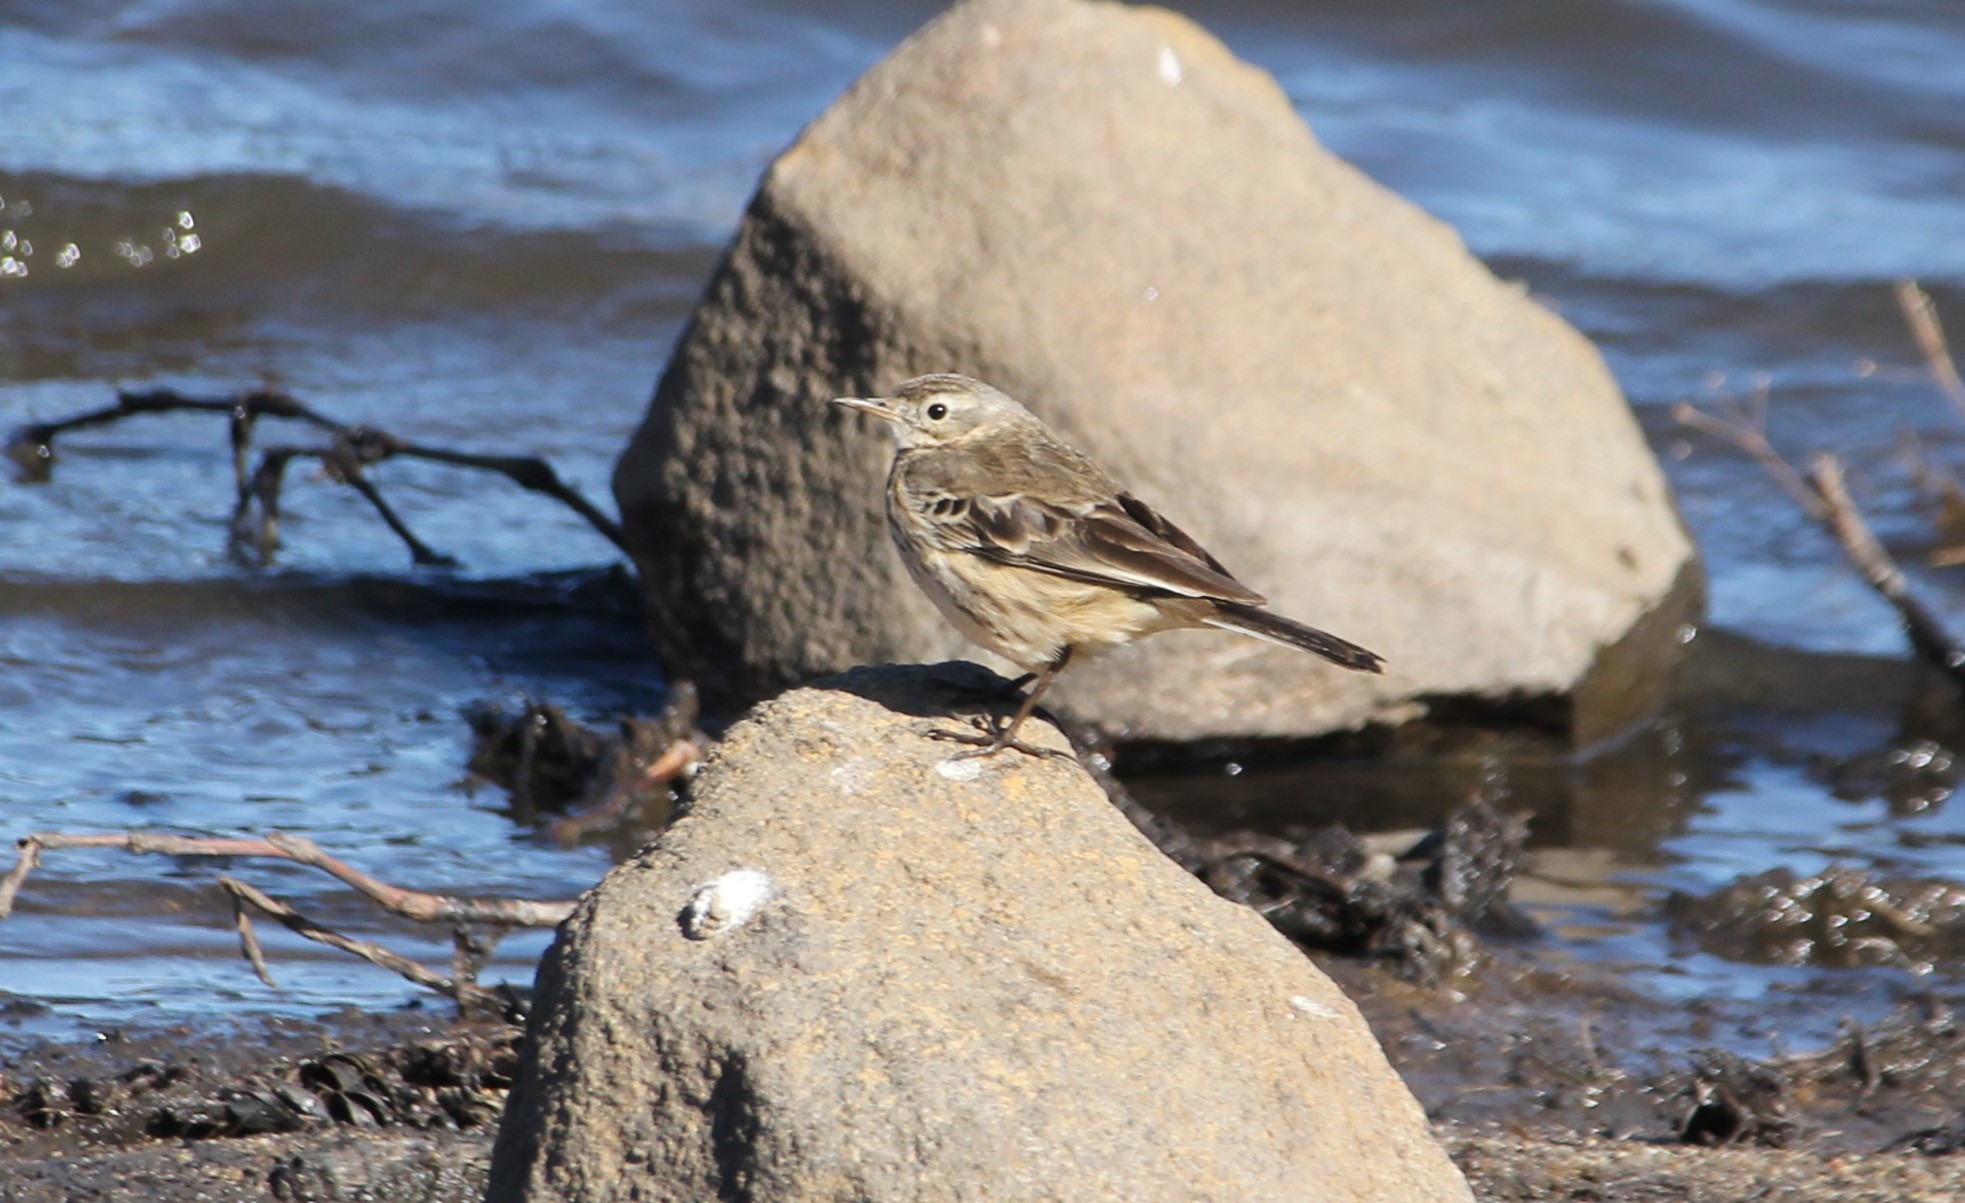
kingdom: Animalia
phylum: Chordata
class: Aves
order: Passeriformes
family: Motacillidae
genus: Anthus
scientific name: Anthus rubescens
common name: Buff-bellied pipit
